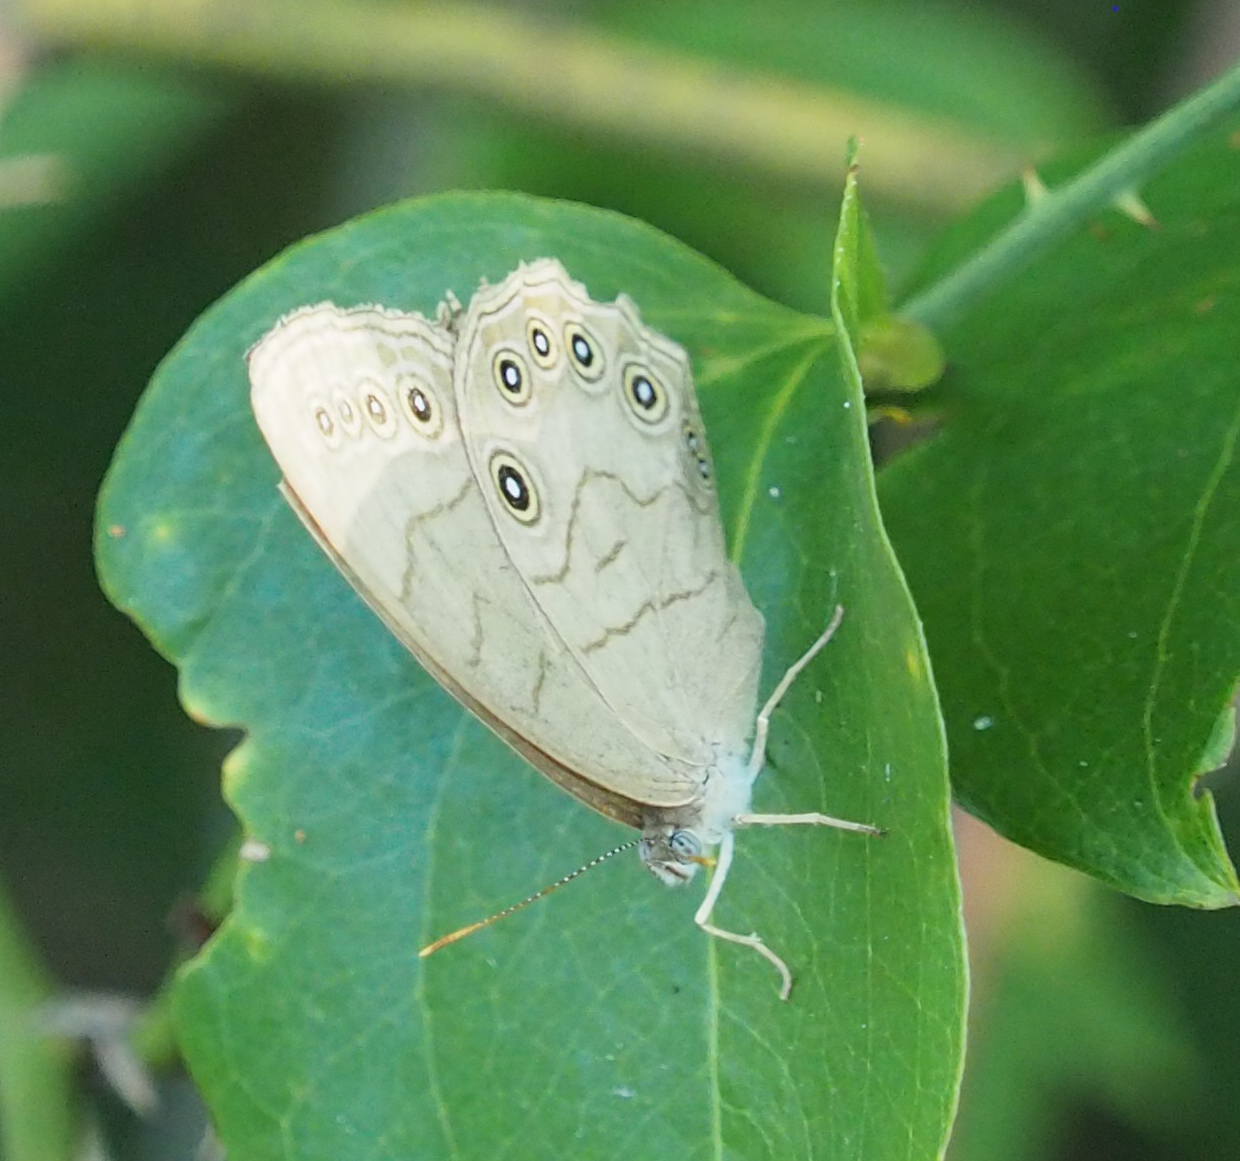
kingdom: Animalia
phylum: Arthropoda
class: Insecta
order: Lepidoptera
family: Nymphalidae
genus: Lethe
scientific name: Lethe eurydice
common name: Eyed brown
